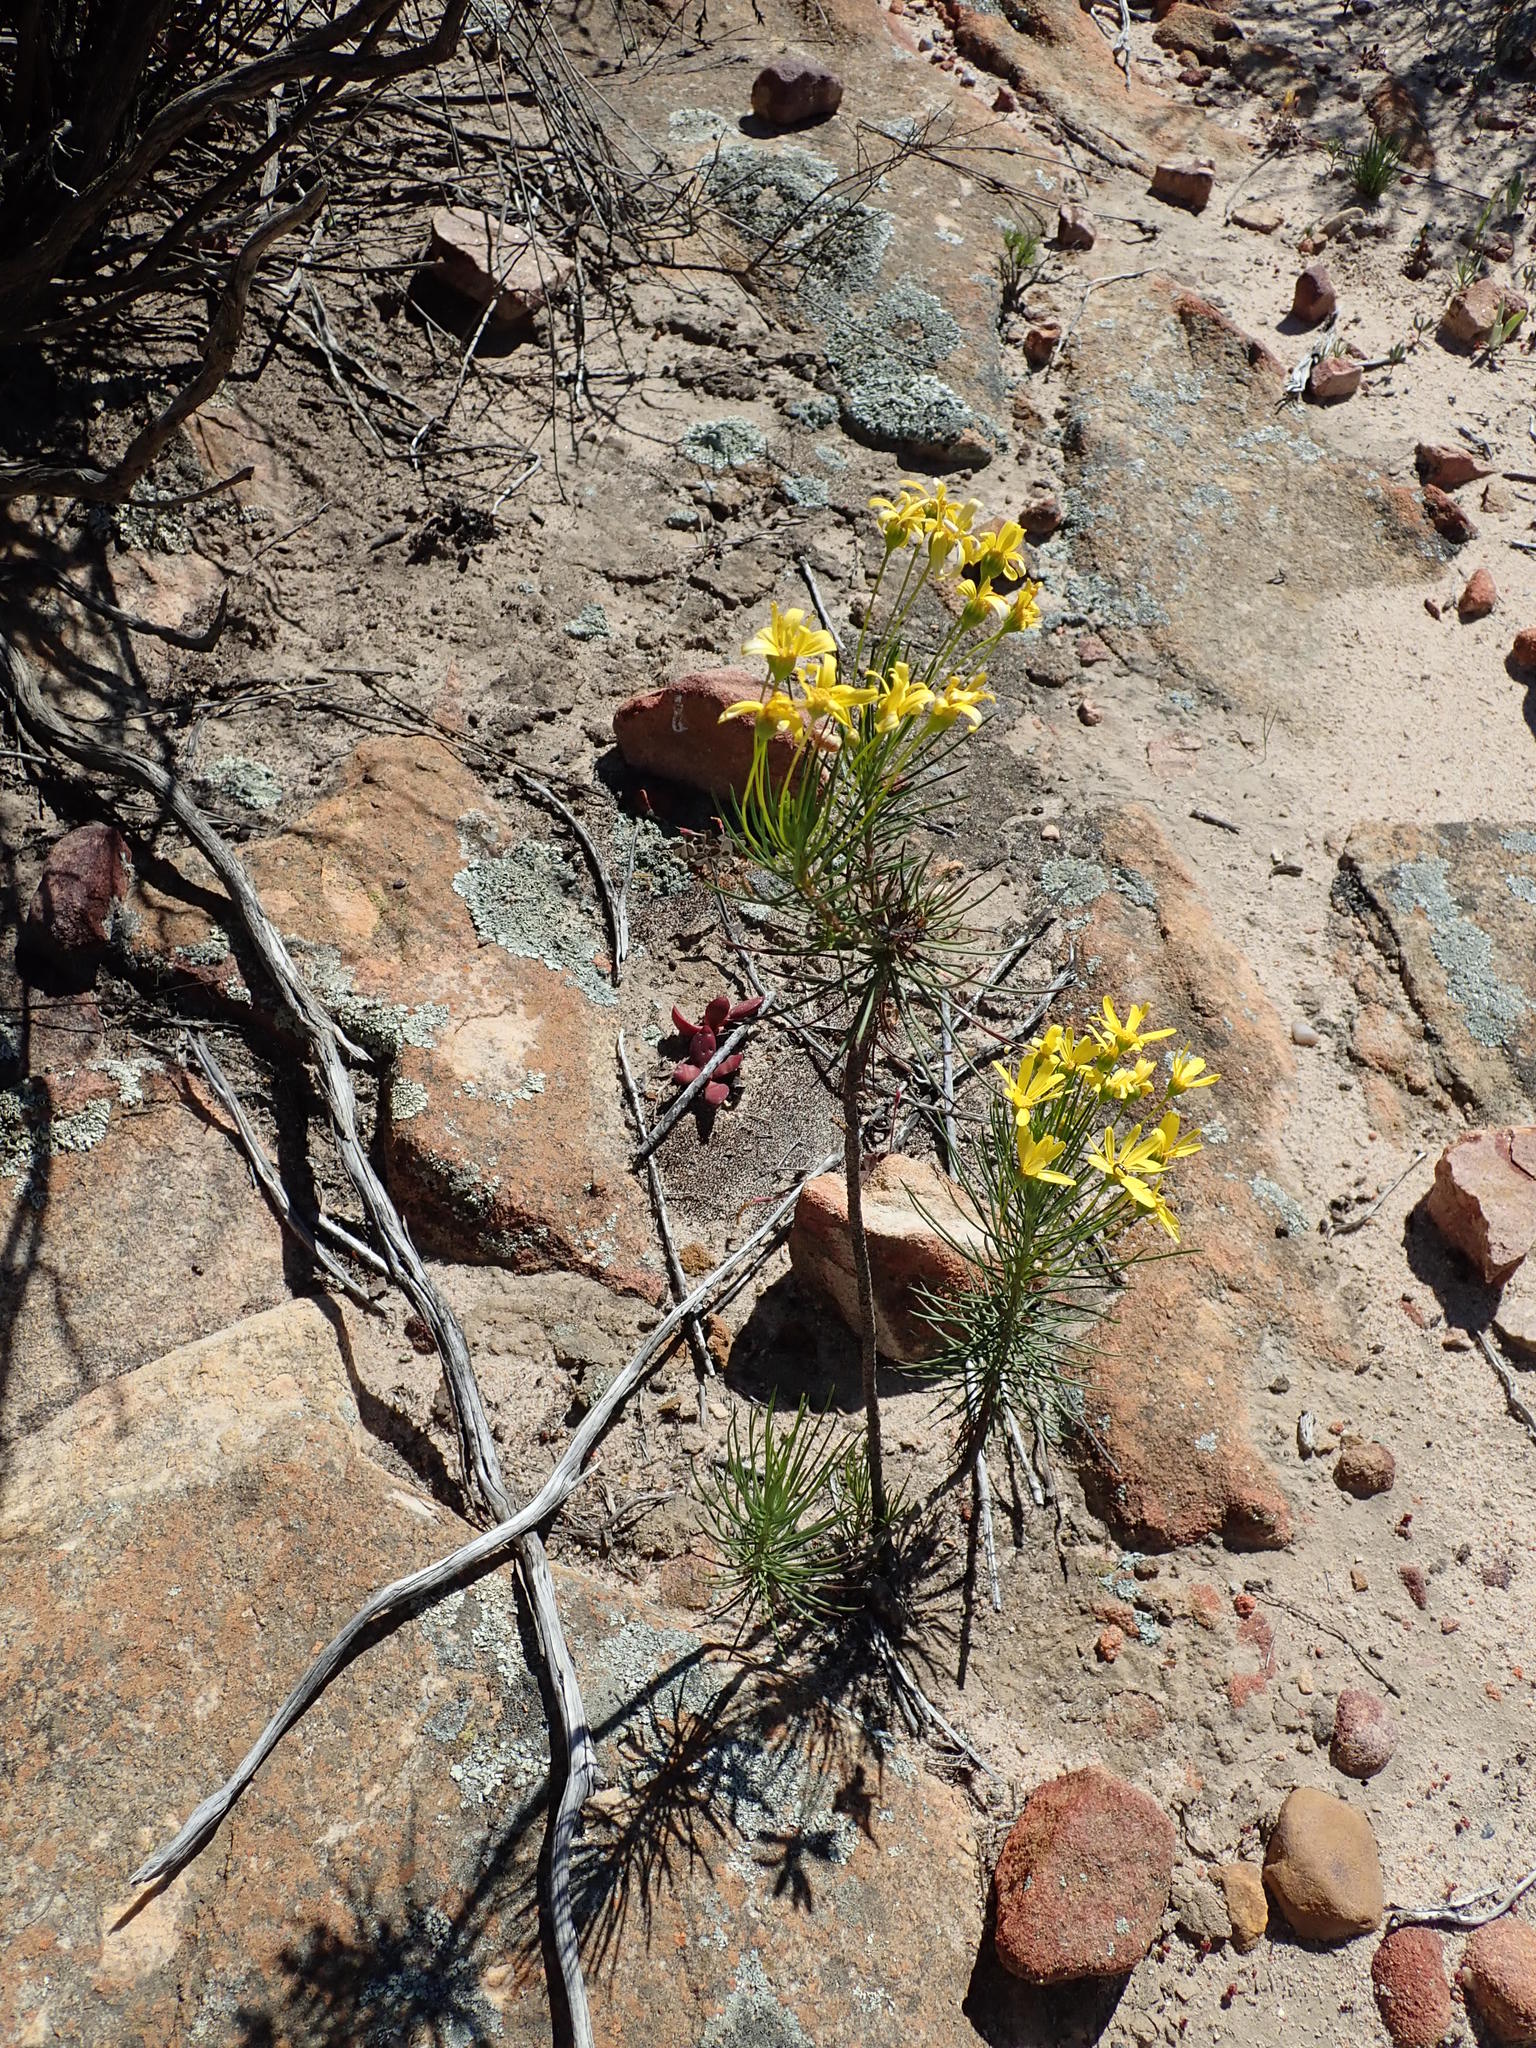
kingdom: Plantae
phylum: Tracheophyta
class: Magnoliopsida
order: Asterales
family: Asteraceae
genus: Euryops
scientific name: Euryops tenuissimus
